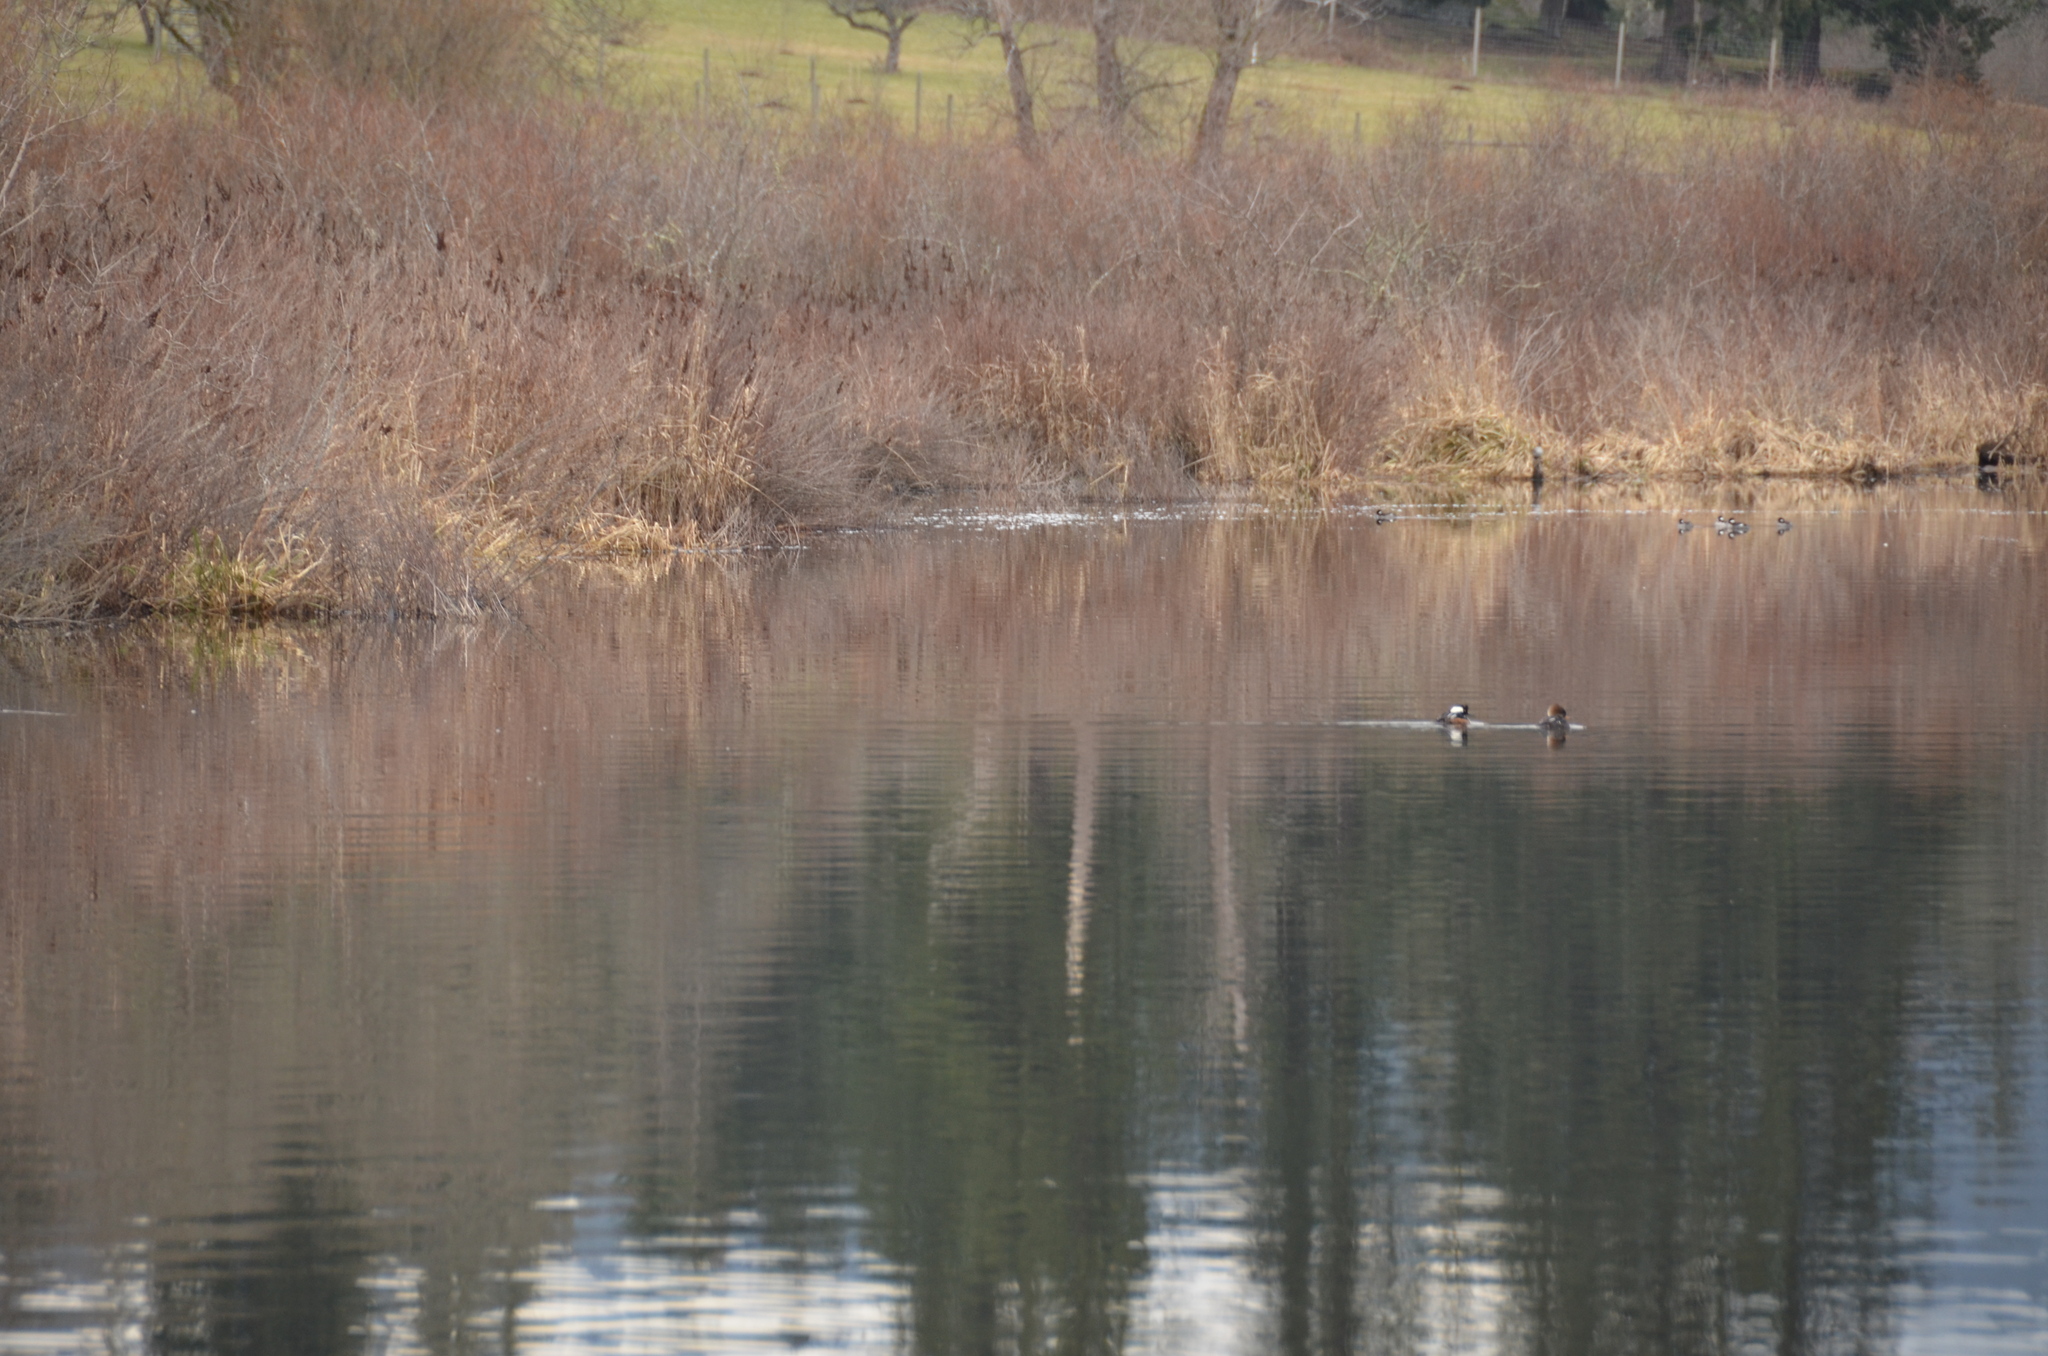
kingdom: Animalia
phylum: Chordata
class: Aves
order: Anseriformes
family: Anatidae
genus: Lophodytes
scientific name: Lophodytes cucullatus
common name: Hooded merganser
